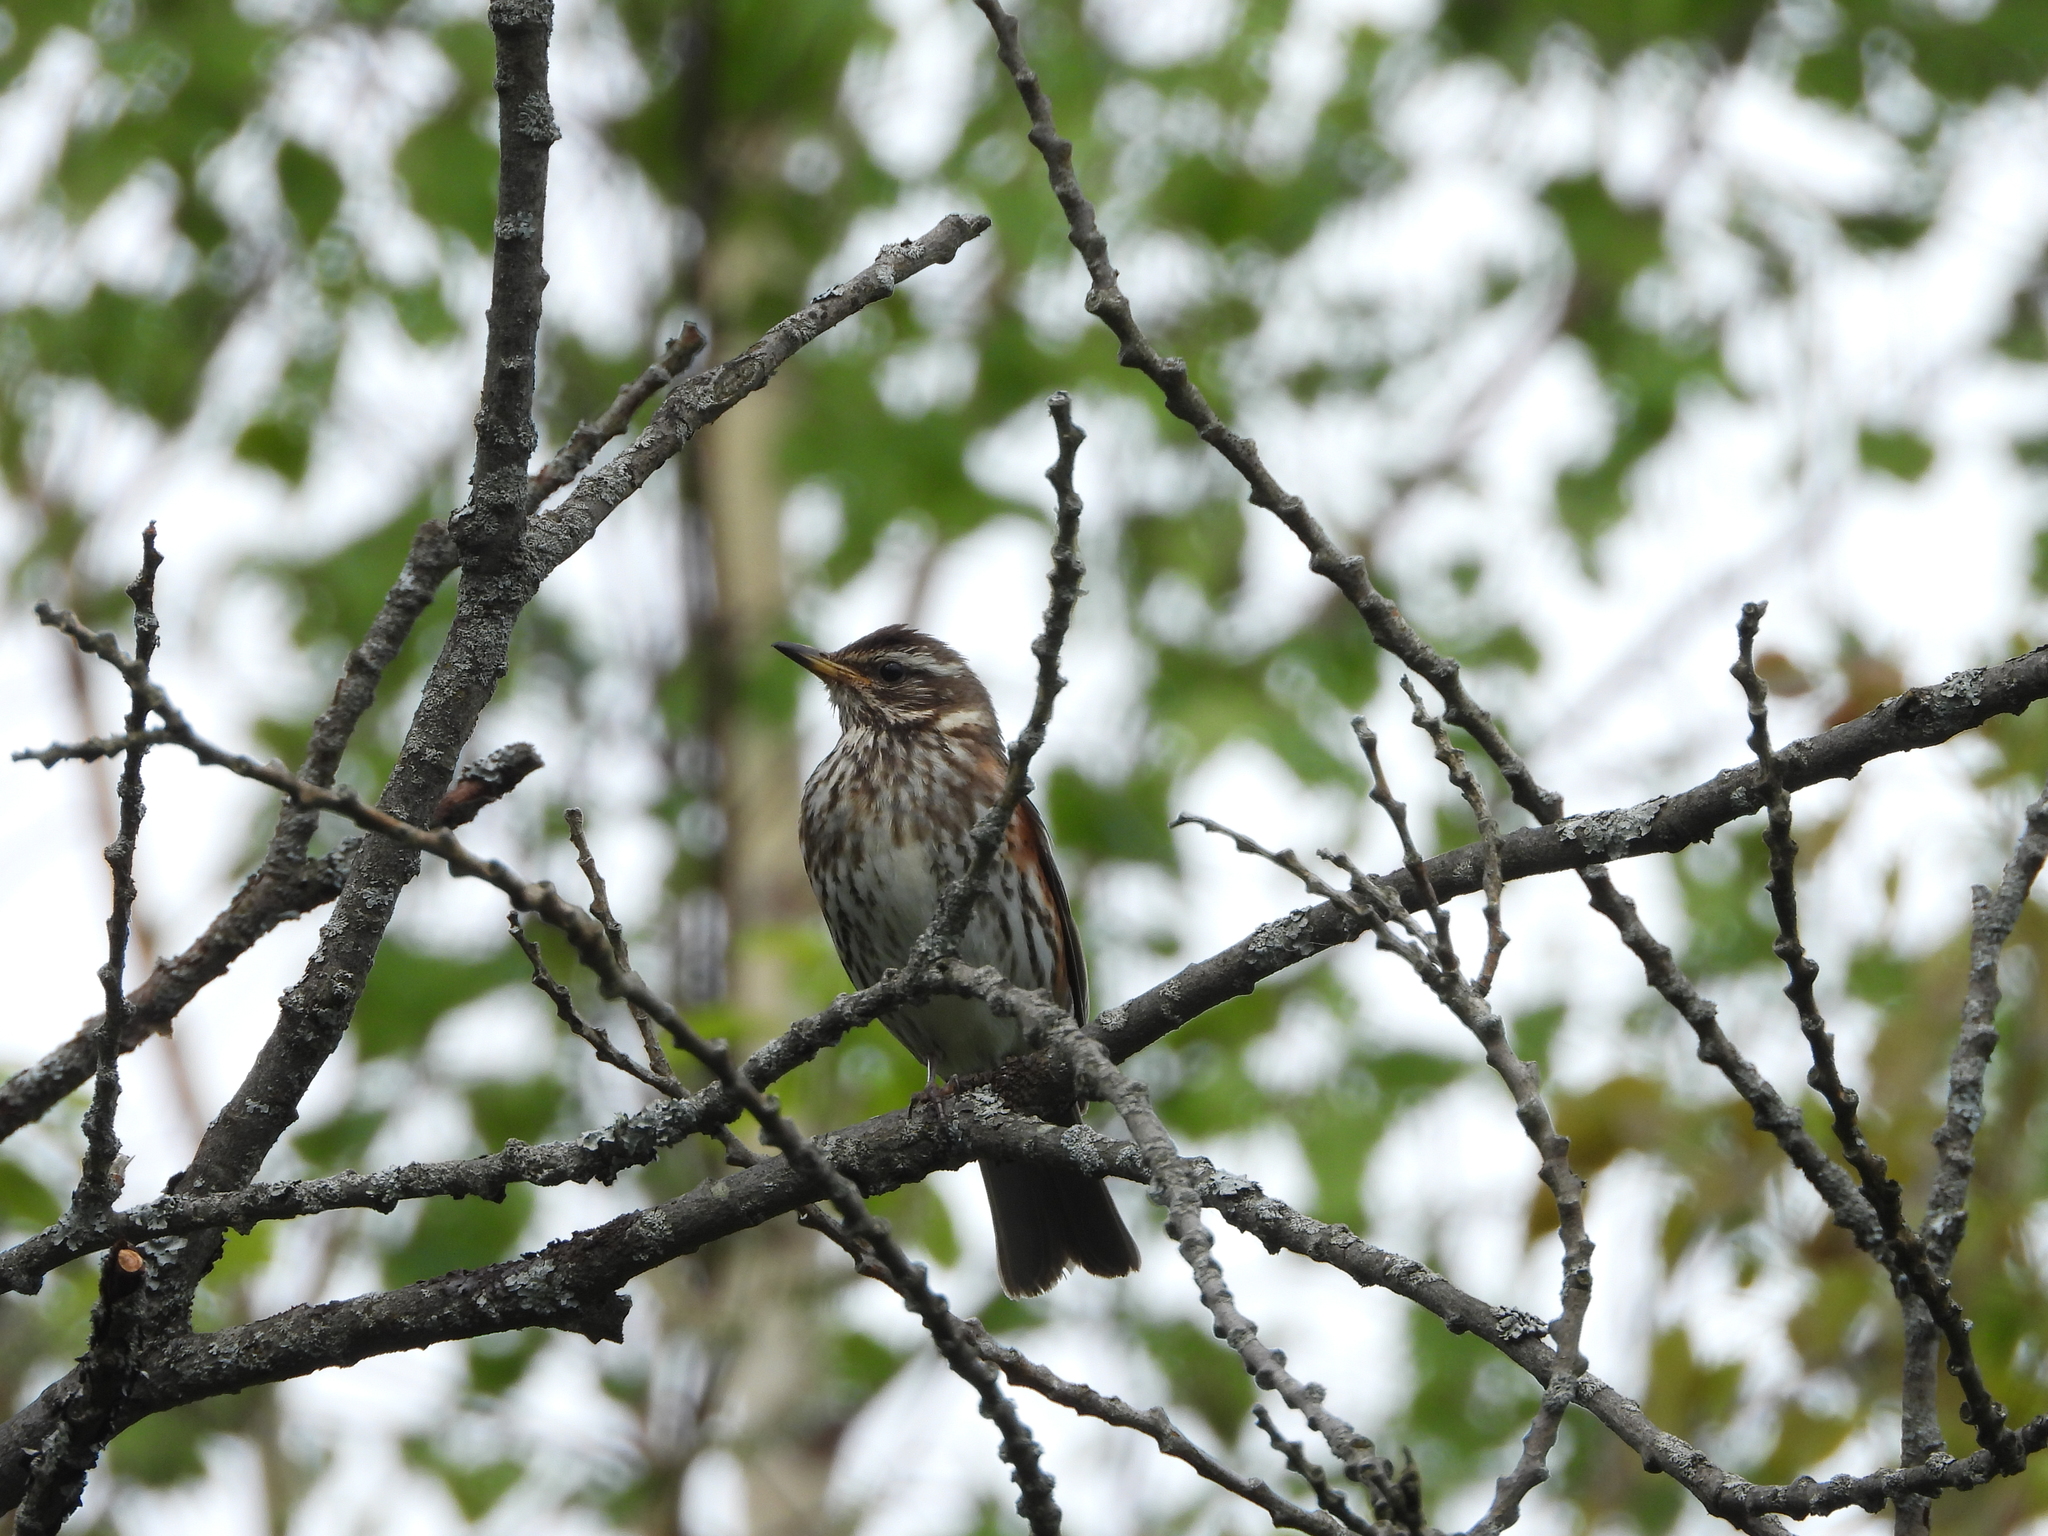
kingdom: Animalia
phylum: Chordata
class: Aves
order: Passeriformes
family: Turdidae
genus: Turdus
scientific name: Turdus iliacus
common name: Redwing
